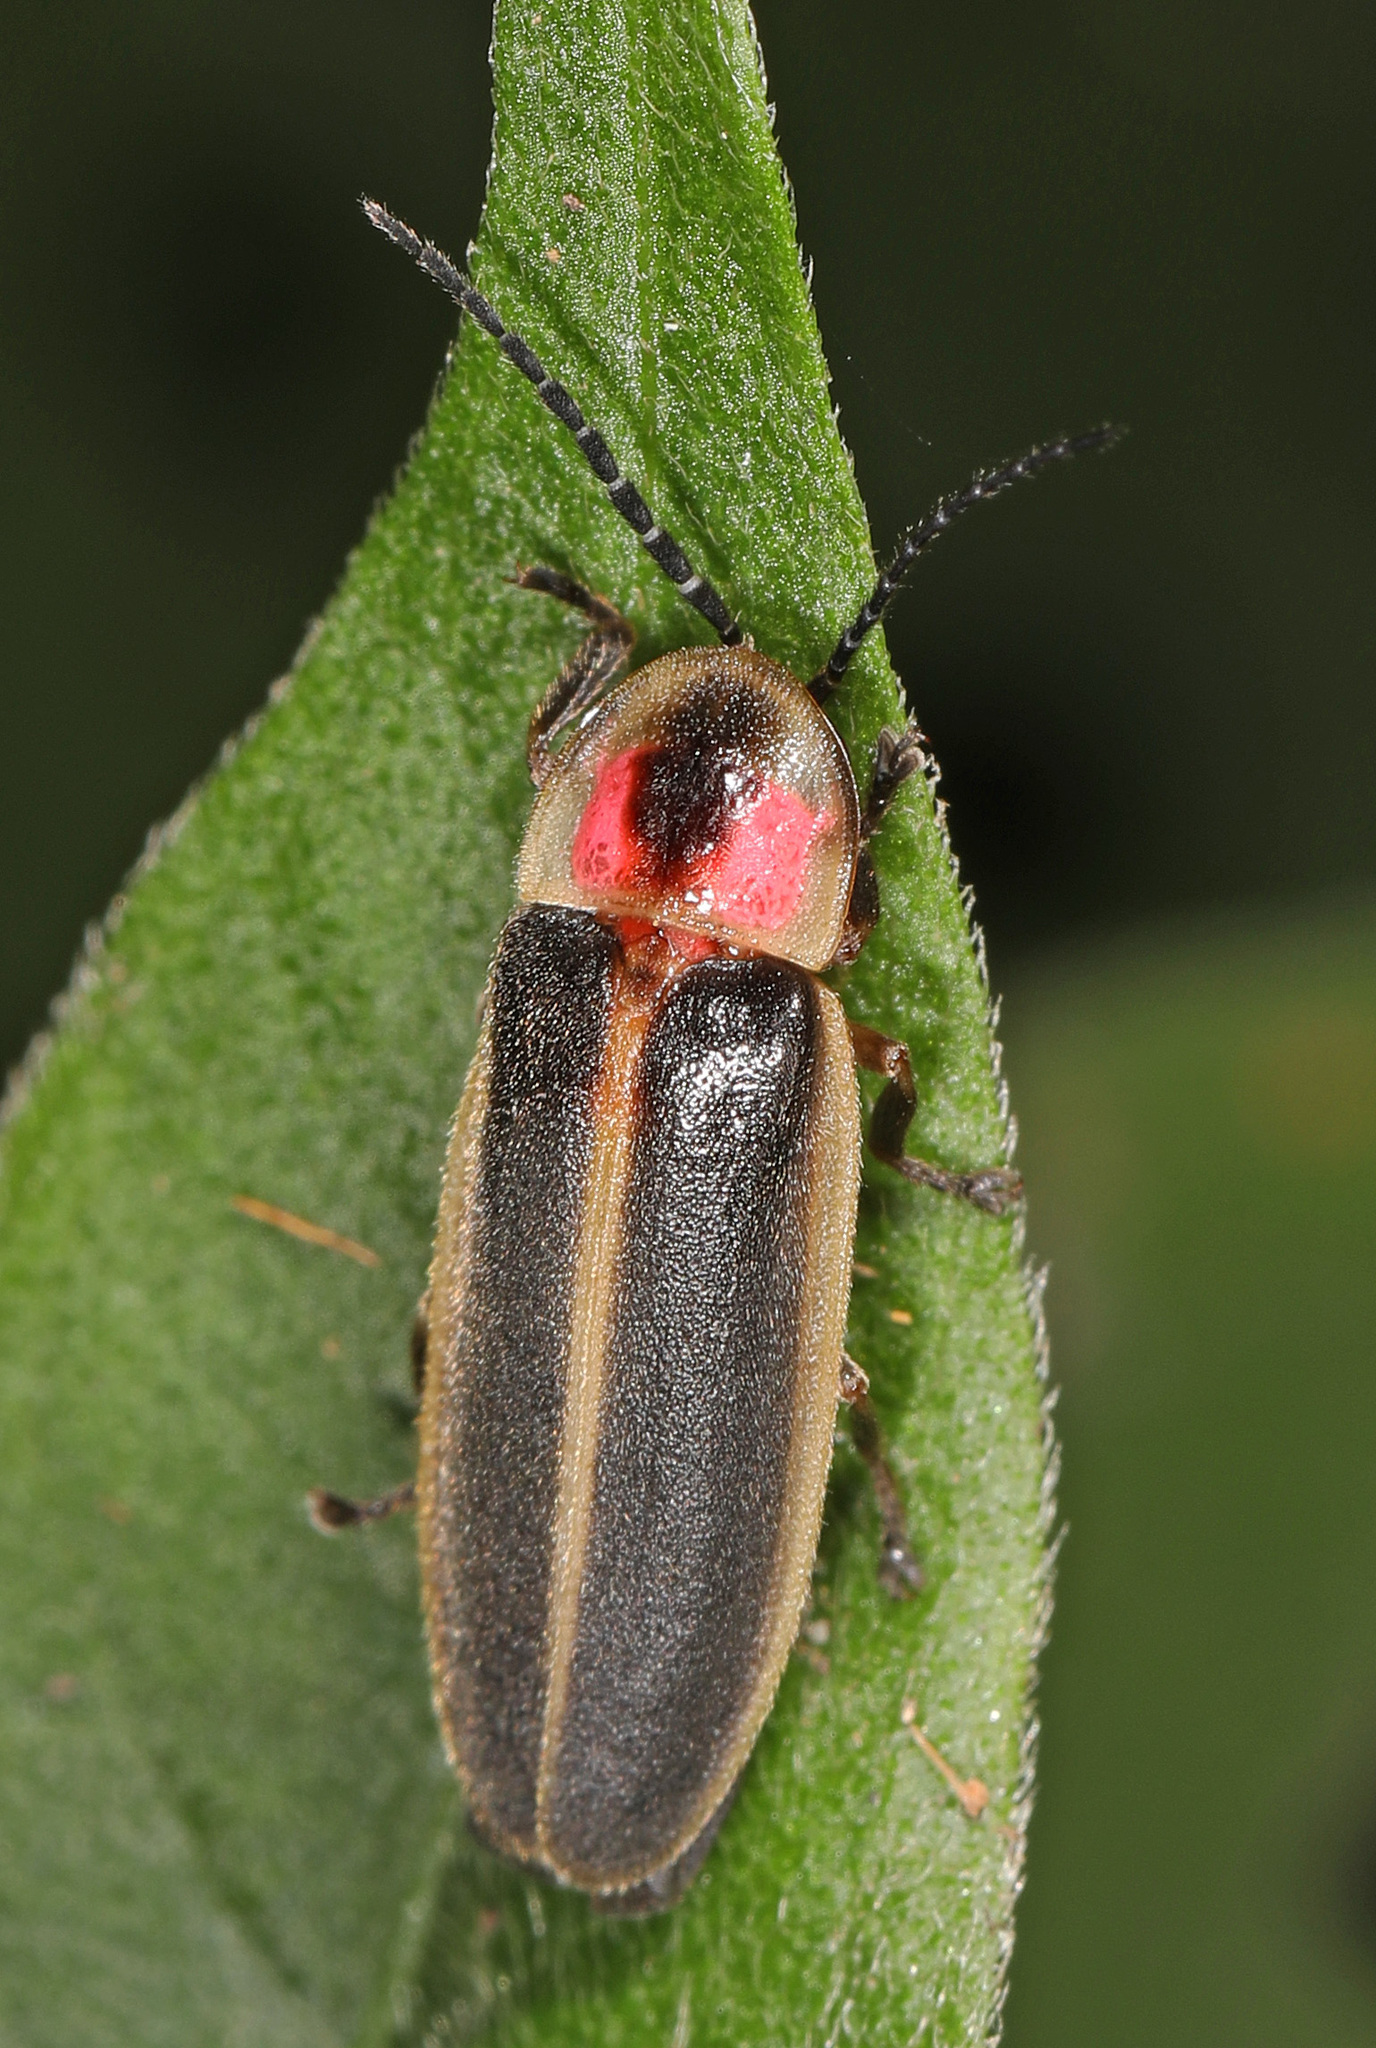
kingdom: Animalia
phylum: Arthropoda
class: Insecta
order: Coleoptera
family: Lampyridae
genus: Photinus
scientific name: Photinus pyralis
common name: Big dipper firefly
